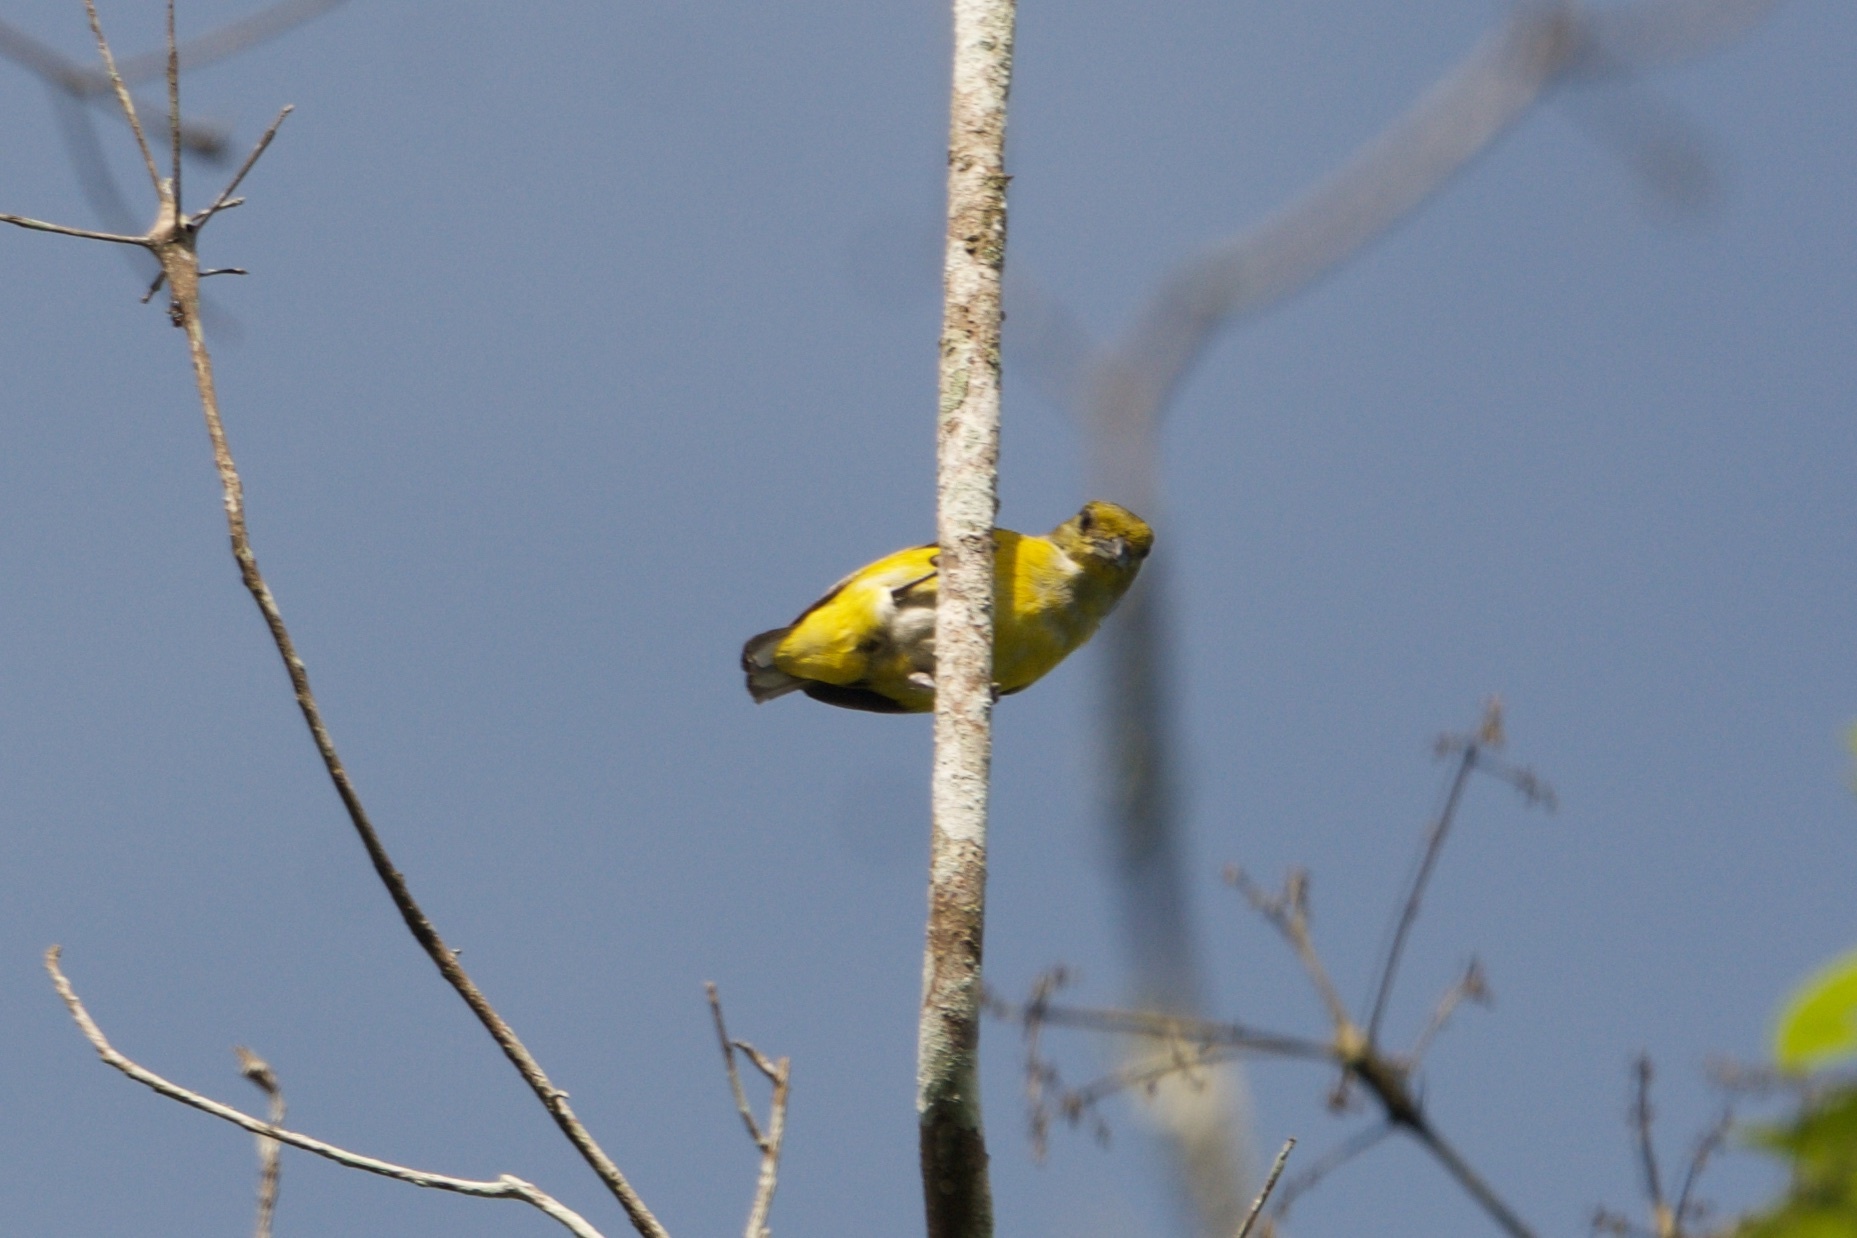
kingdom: Animalia
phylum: Chordata
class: Aves
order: Passeriformes
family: Fringillidae
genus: Euphonia
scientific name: Euphonia hirundinacea
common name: Yellow-throated euphonia
